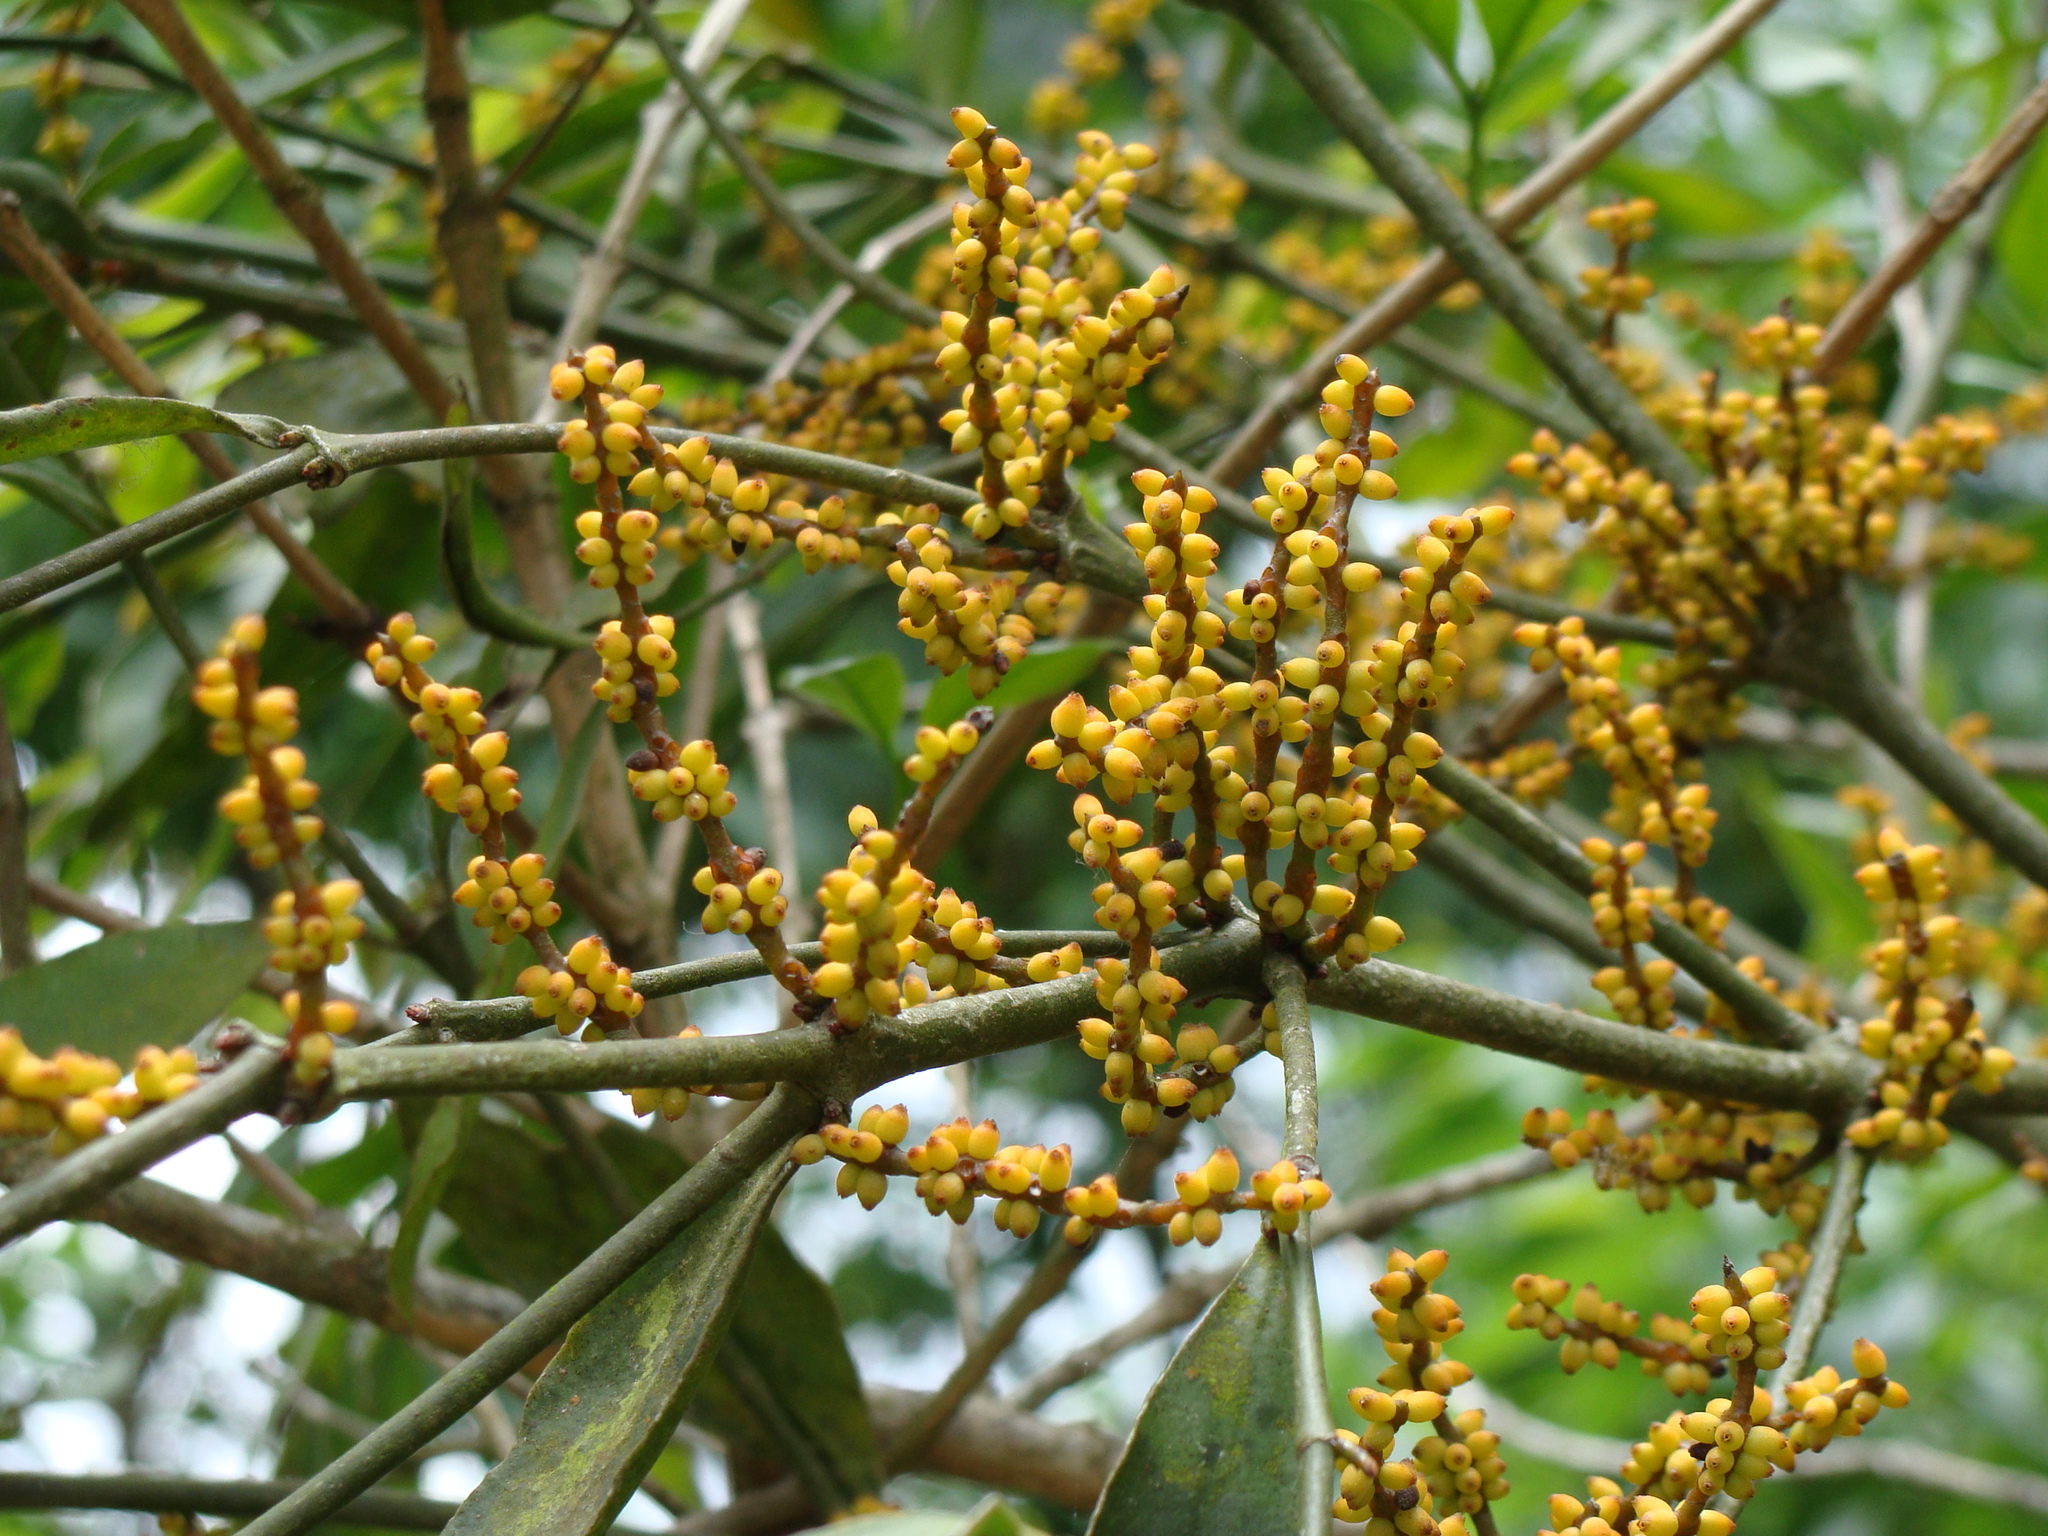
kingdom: Plantae
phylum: Tracheophyta
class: Magnoliopsida
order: Santalales
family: Viscaceae
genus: Phoradendron
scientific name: Phoradendron aurantiacum
